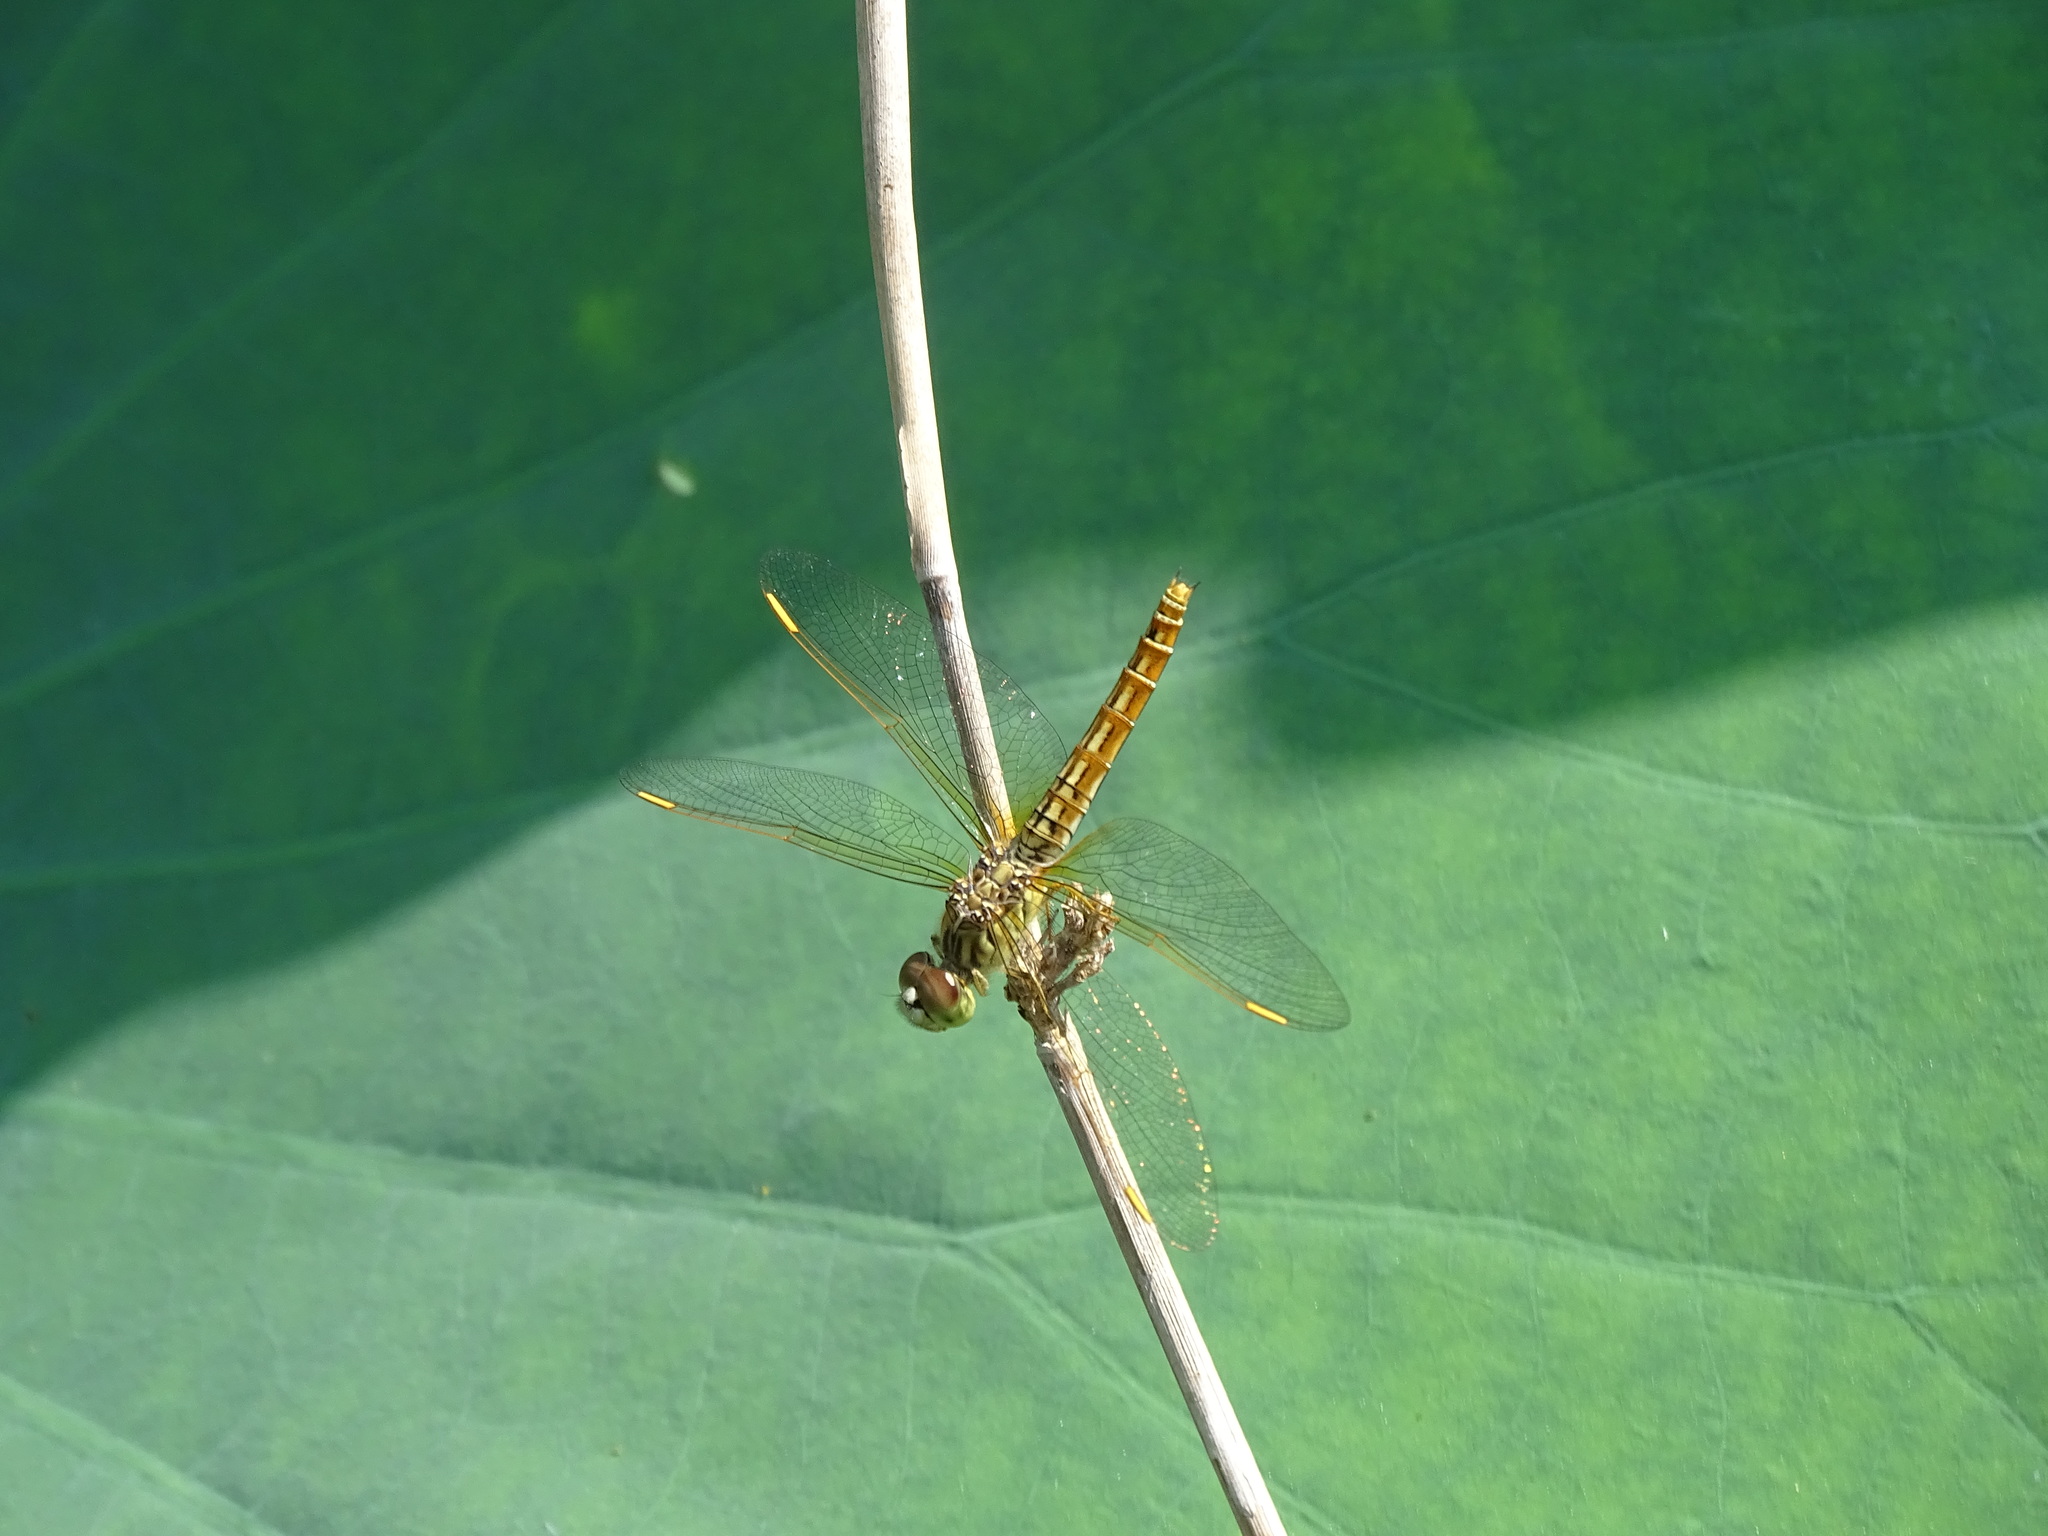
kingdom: Animalia
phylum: Arthropoda
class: Insecta
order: Odonata
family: Libellulidae
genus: Brachythemis
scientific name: Brachythemis contaminata
